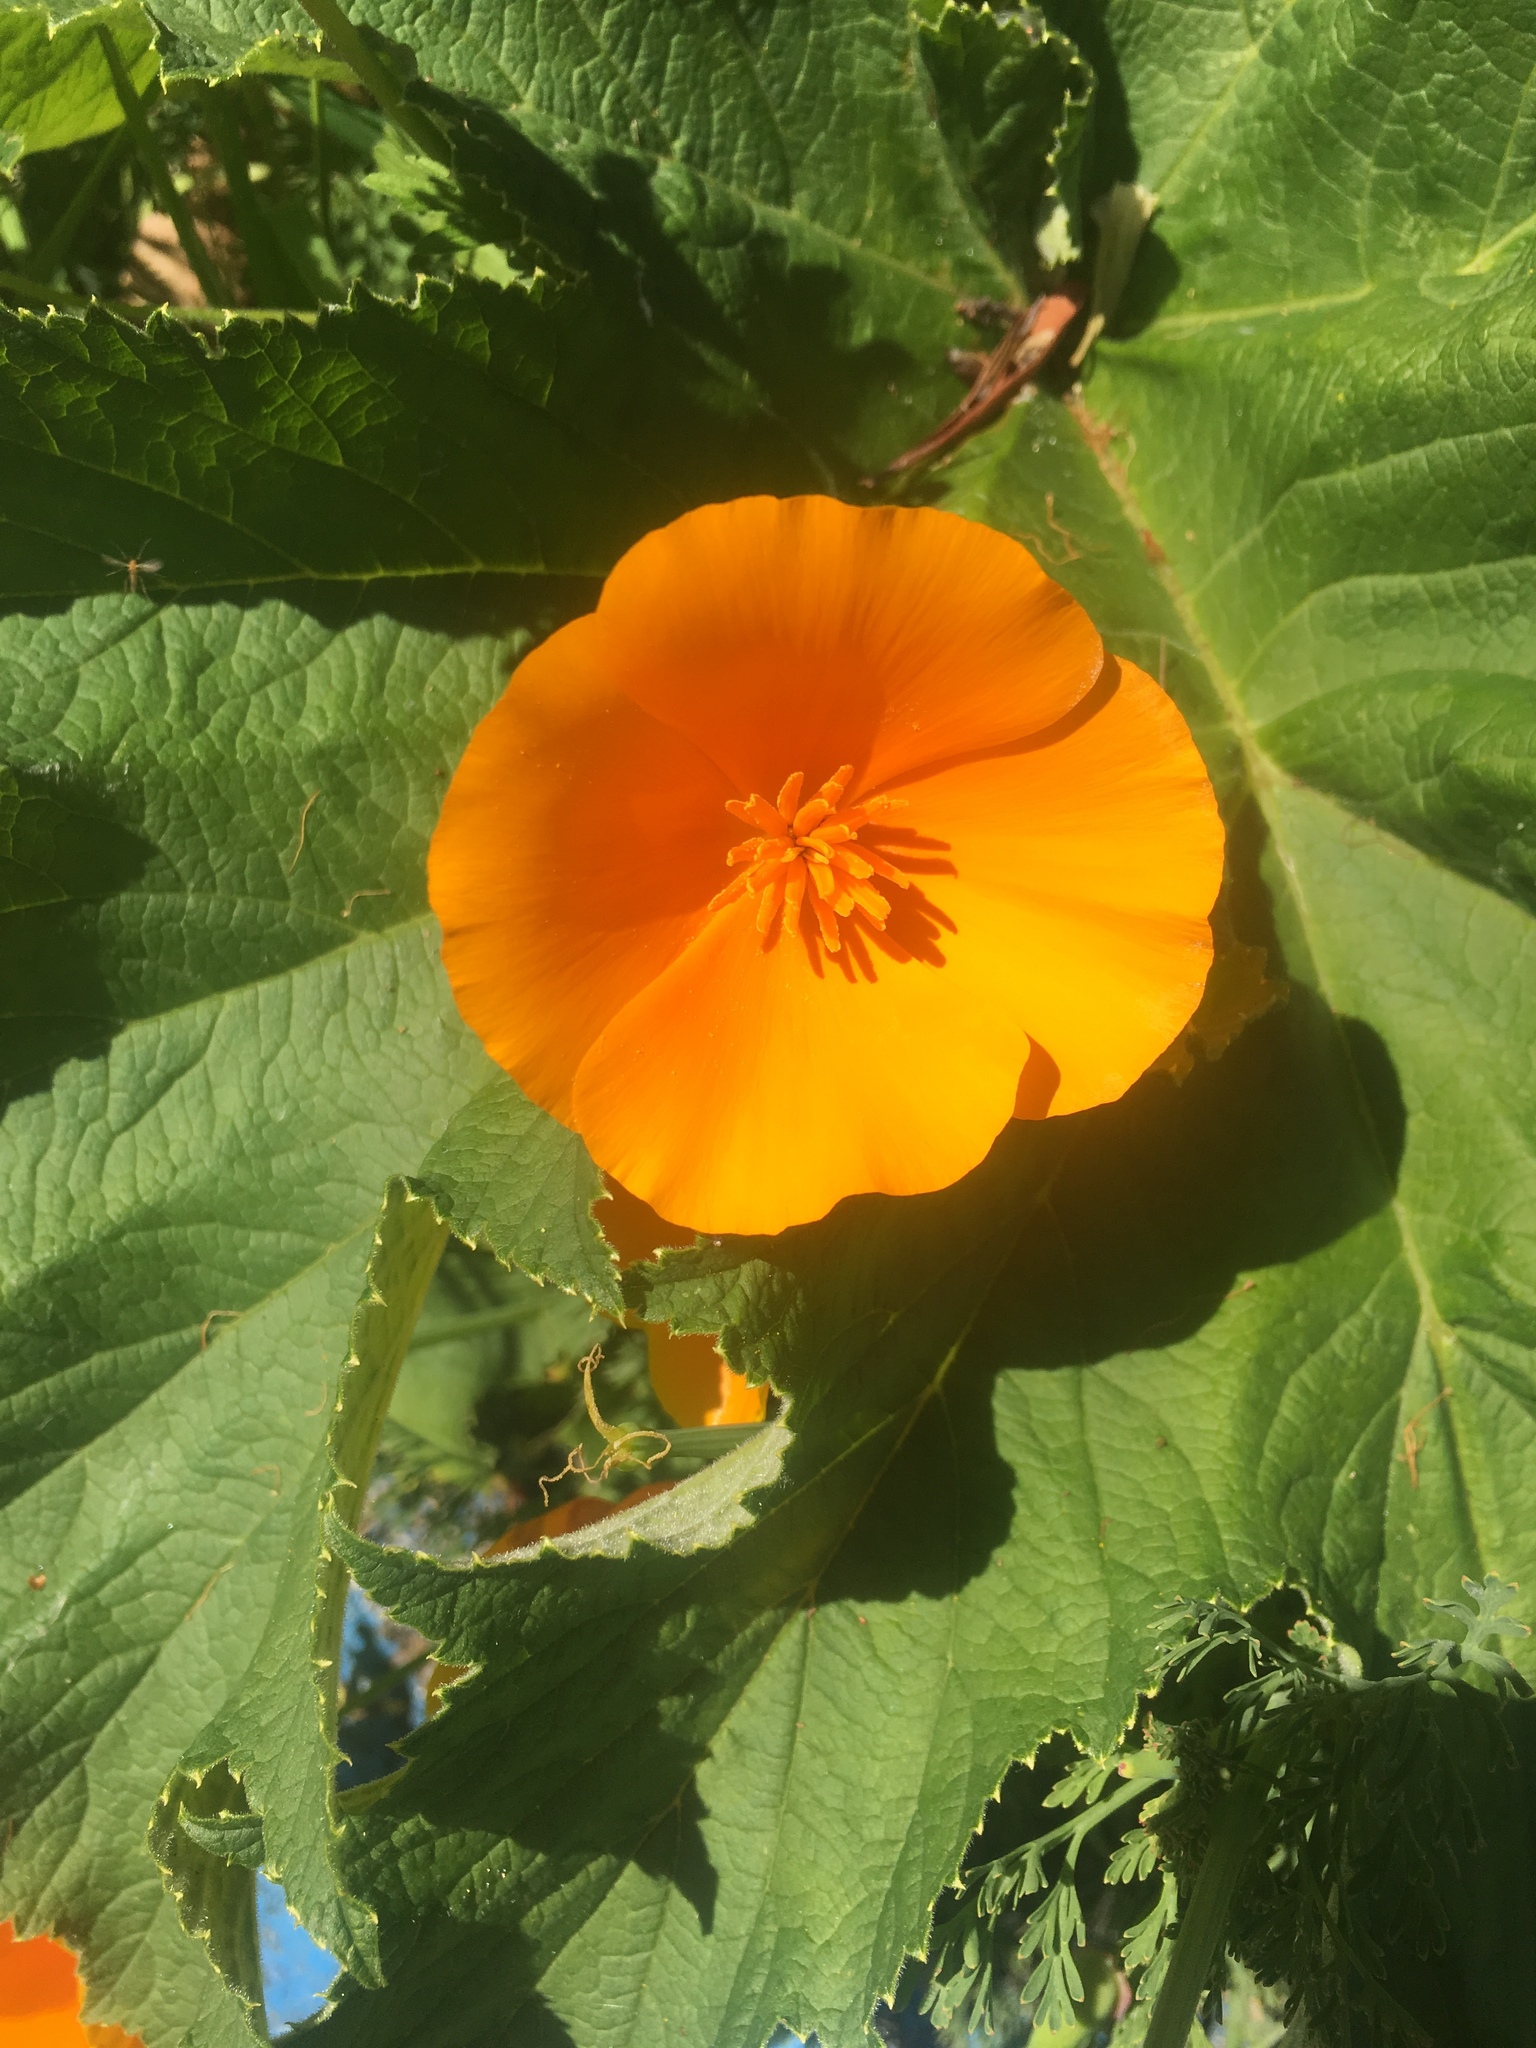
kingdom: Plantae
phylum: Tracheophyta
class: Magnoliopsida
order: Ranunculales
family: Papaveraceae
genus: Eschscholzia
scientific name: Eschscholzia californica
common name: California poppy
